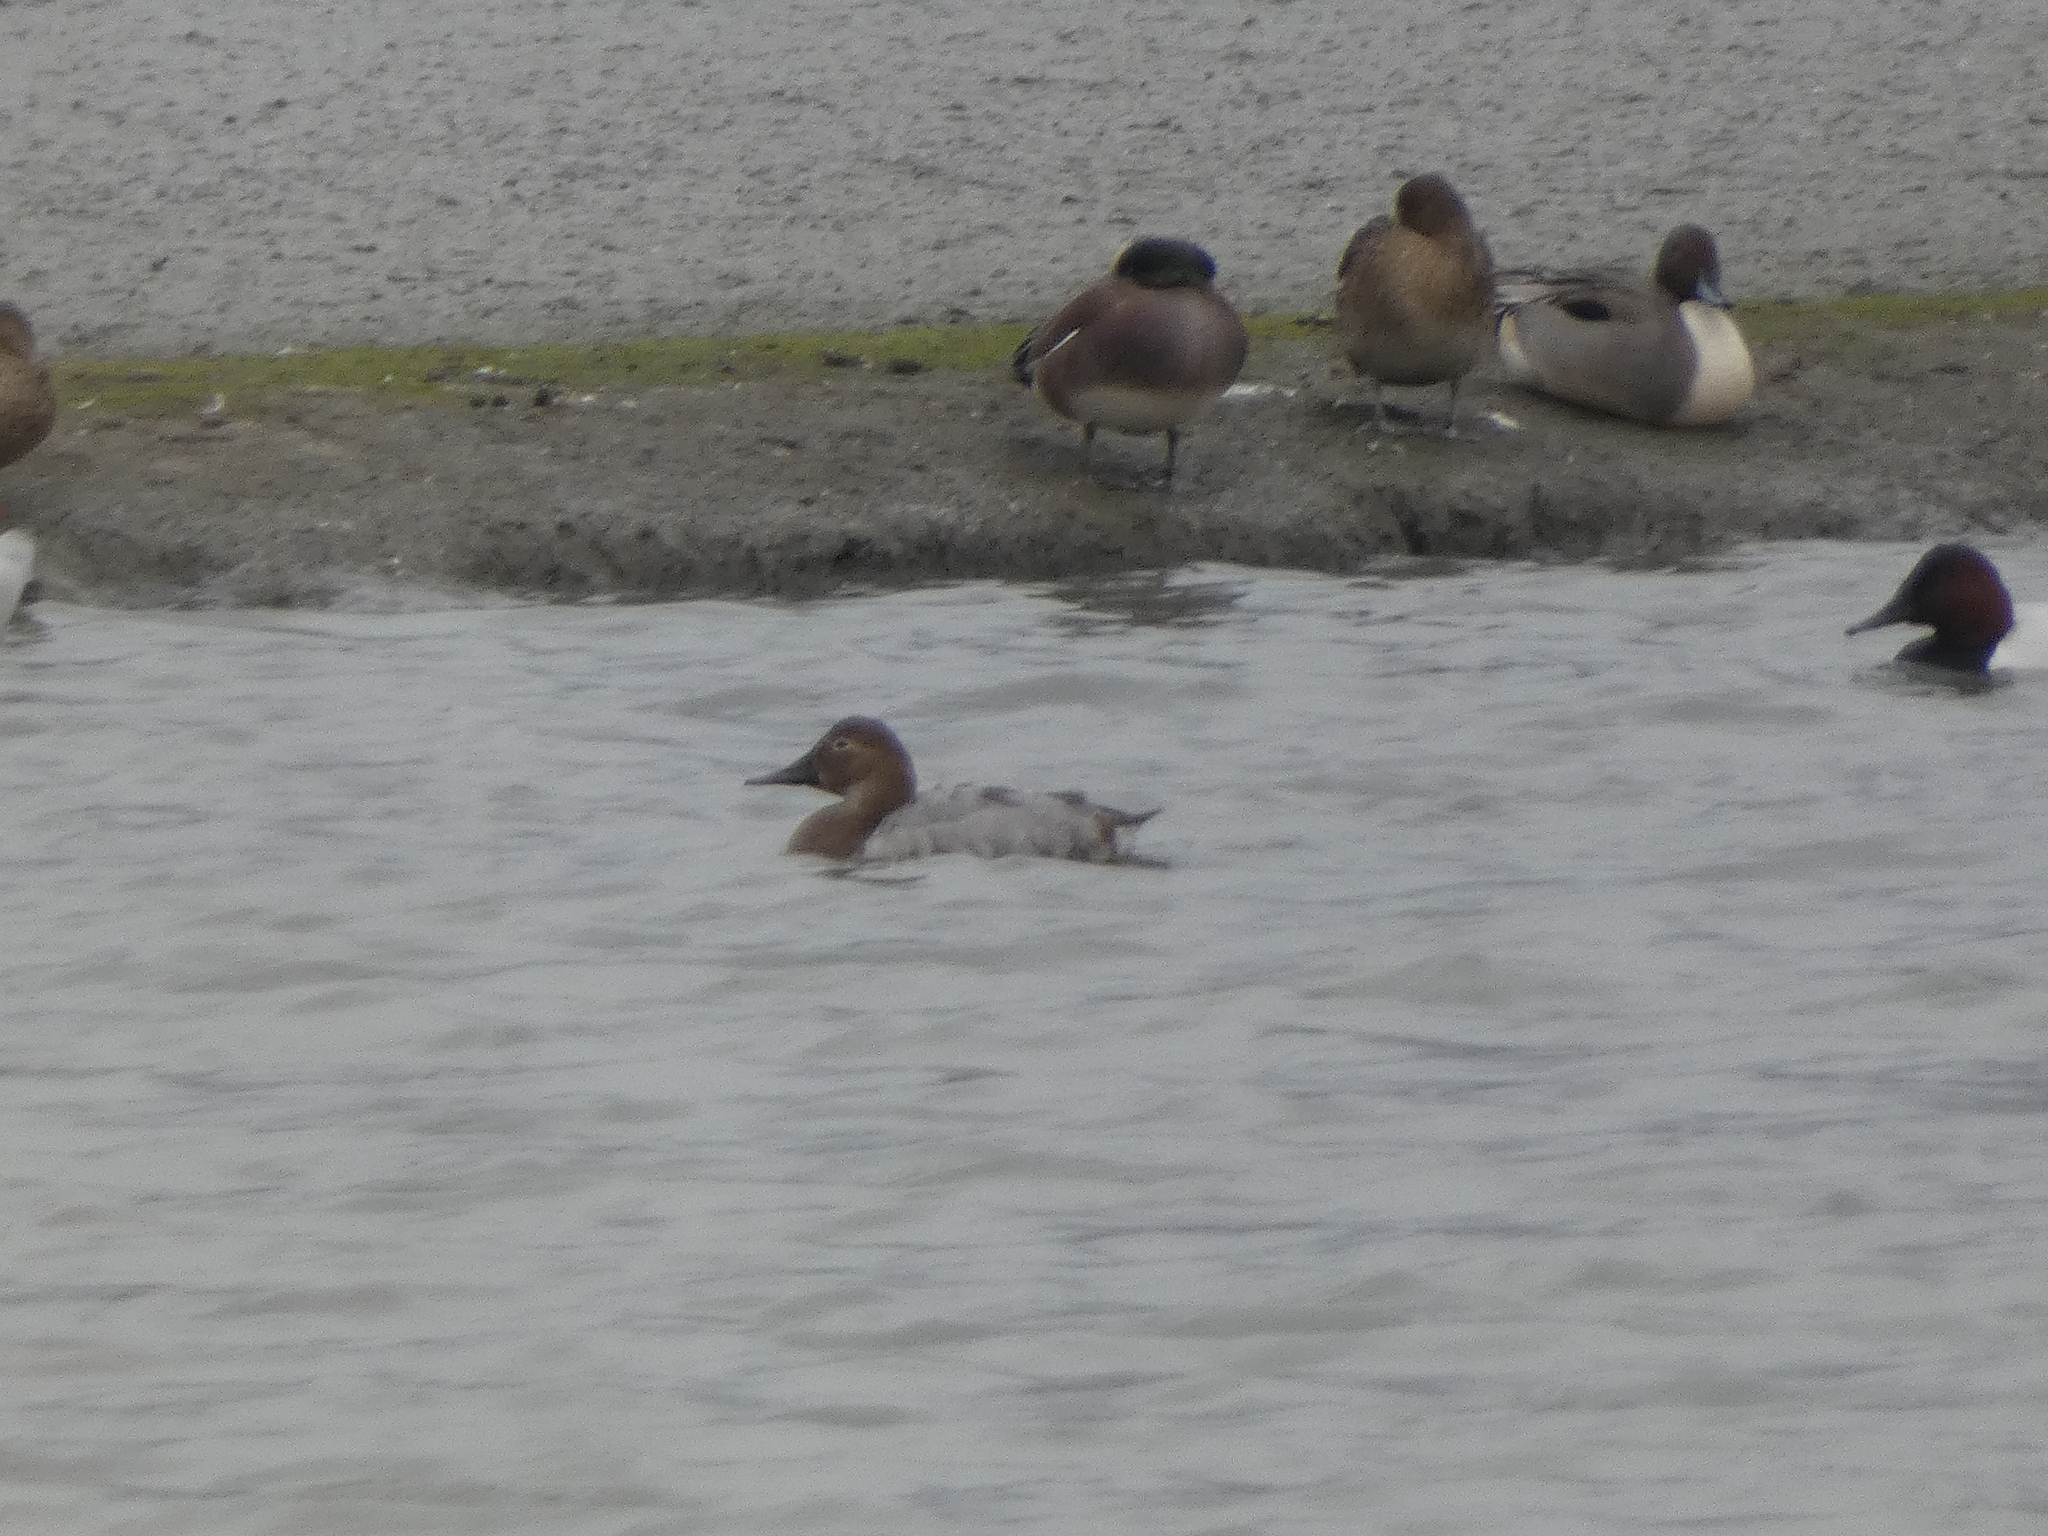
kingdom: Animalia
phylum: Chordata
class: Aves
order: Anseriformes
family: Anatidae
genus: Aythya
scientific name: Aythya valisineria
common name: Canvasback
